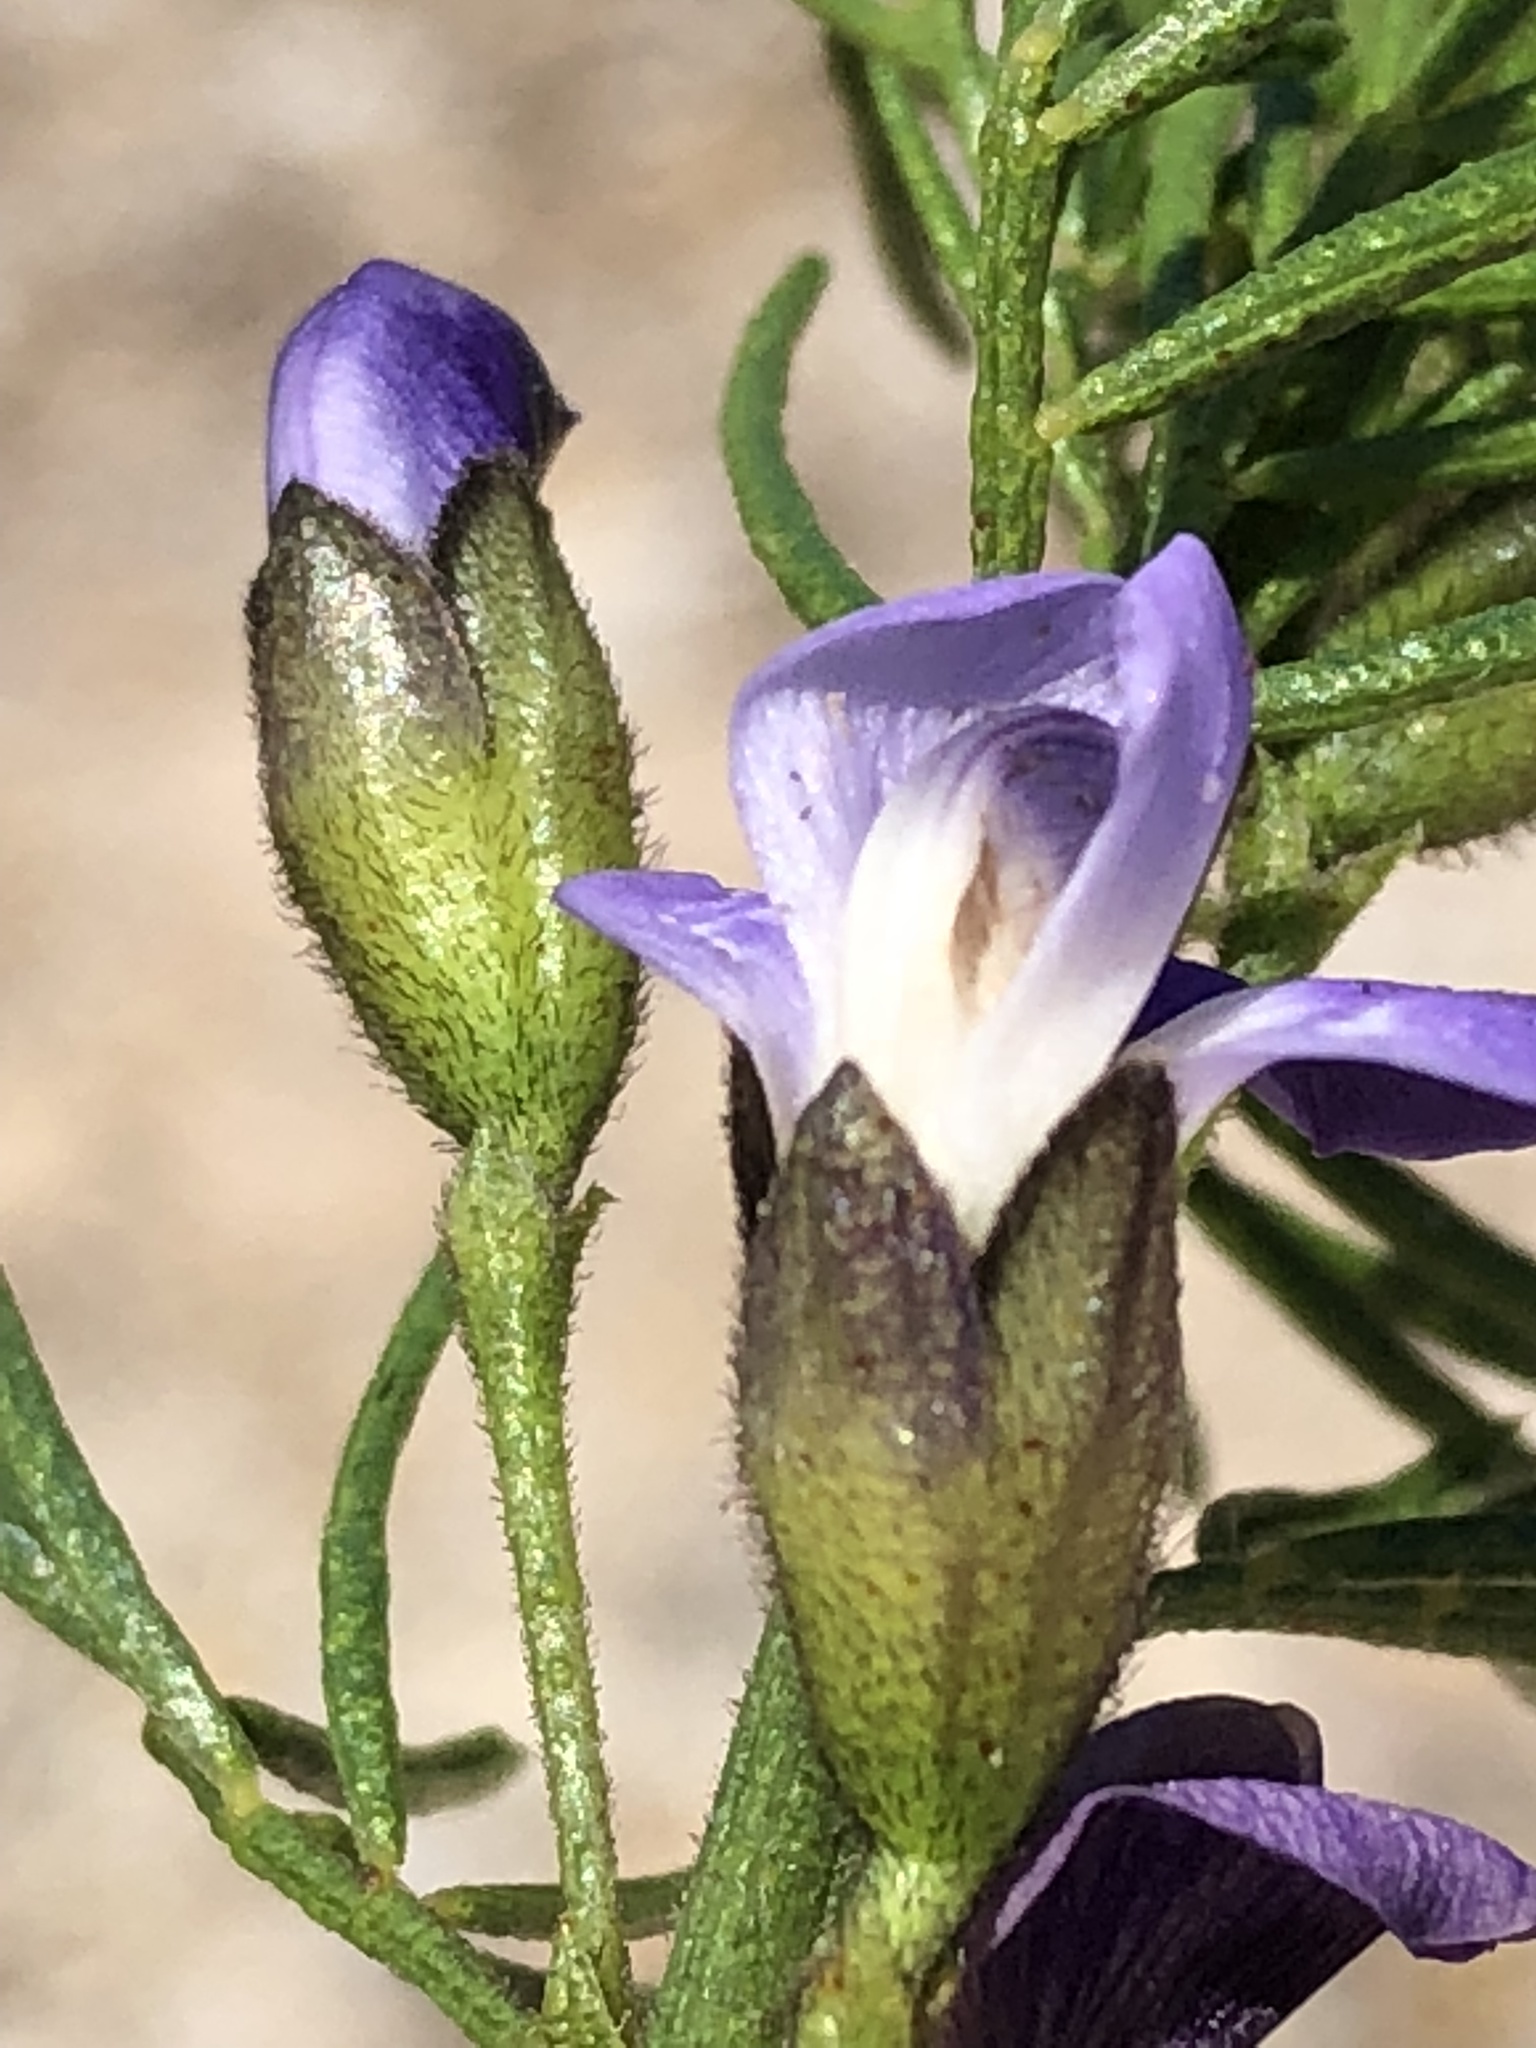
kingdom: Plantae
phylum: Tracheophyta
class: Magnoliopsida
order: Fabales
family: Fabaceae
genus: Psoralea
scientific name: Psoralea kougaensis
